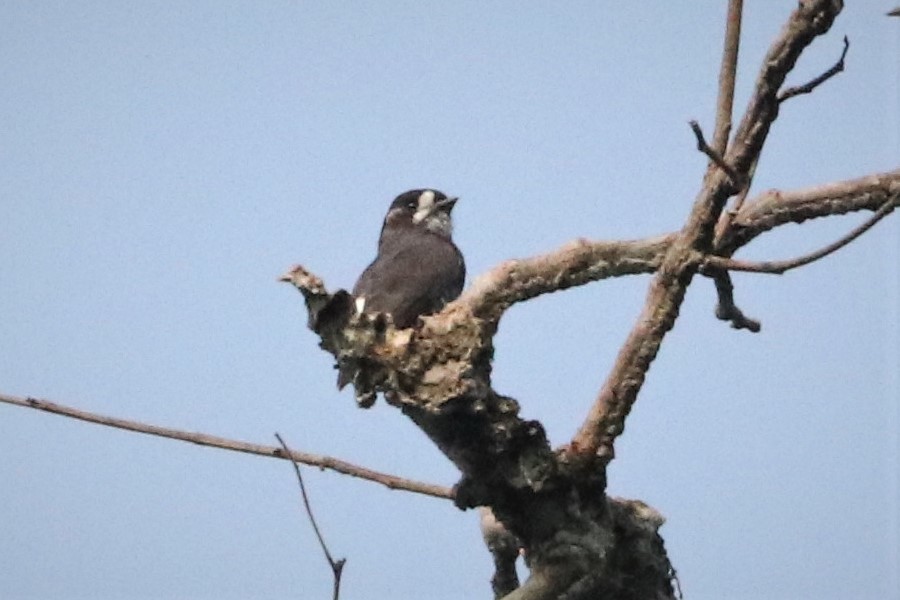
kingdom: Animalia
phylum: Chordata
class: Aves
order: Passeriformes
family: Cotingidae
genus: Iodopleura
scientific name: Iodopleura isabellae
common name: White-browed purpletuft
